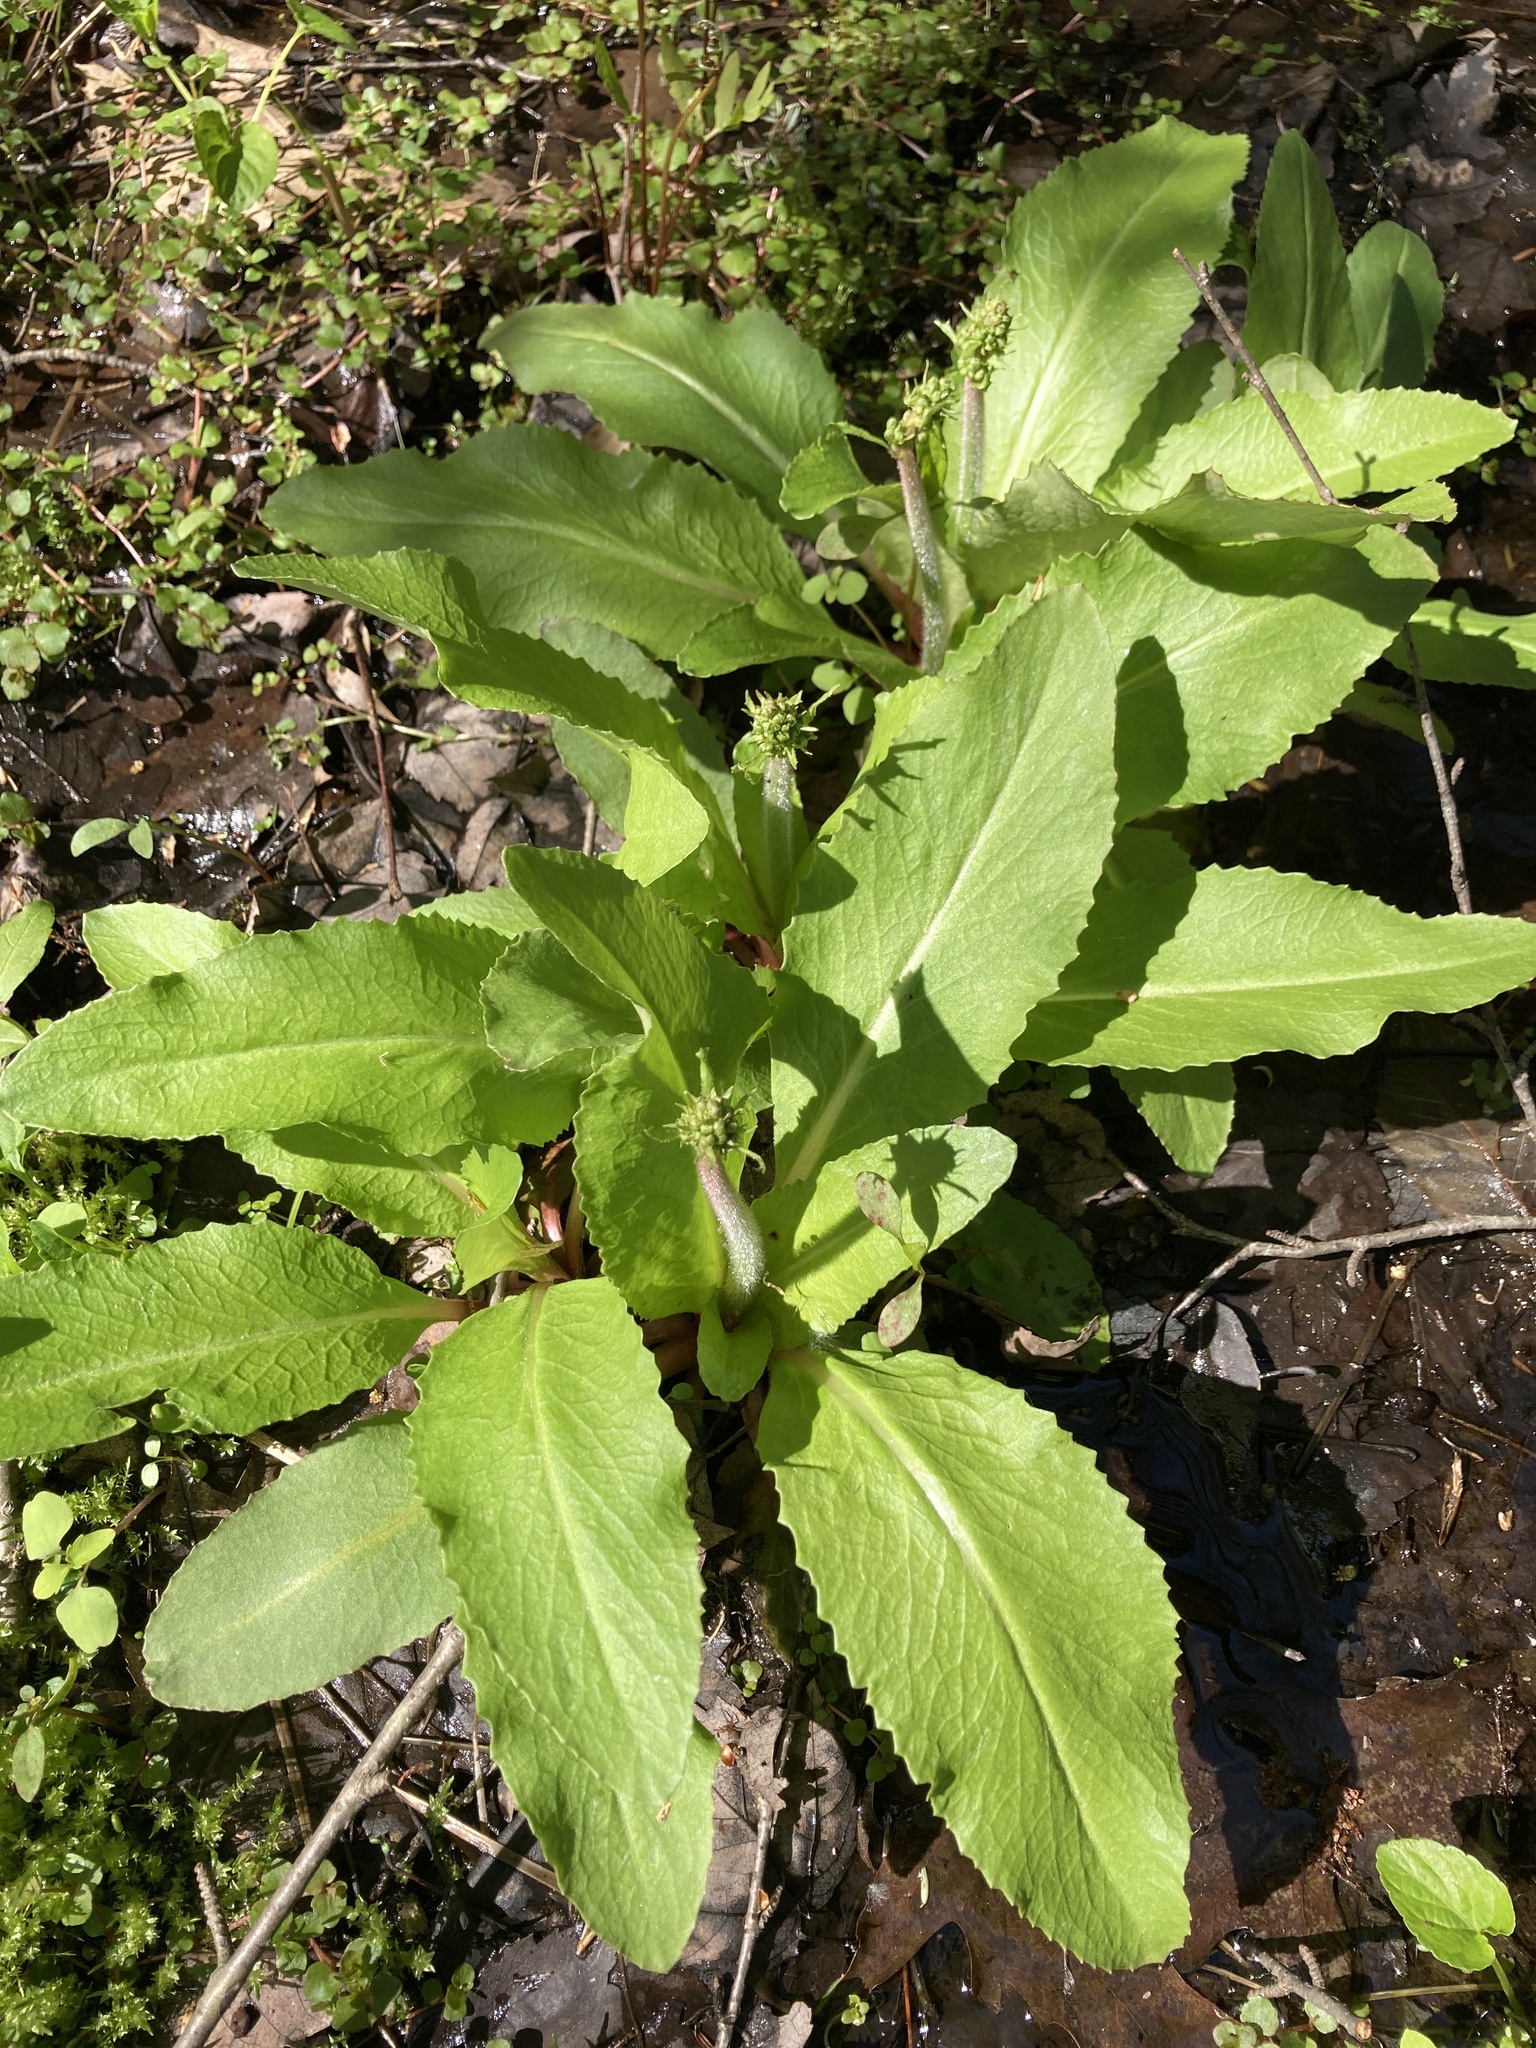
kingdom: Plantae
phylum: Tracheophyta
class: Magnoliopsida
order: Saxifragales
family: Saxifragaceae
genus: Micranthes
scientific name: Micranthes pensylvanica
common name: Marsh saxifrage
